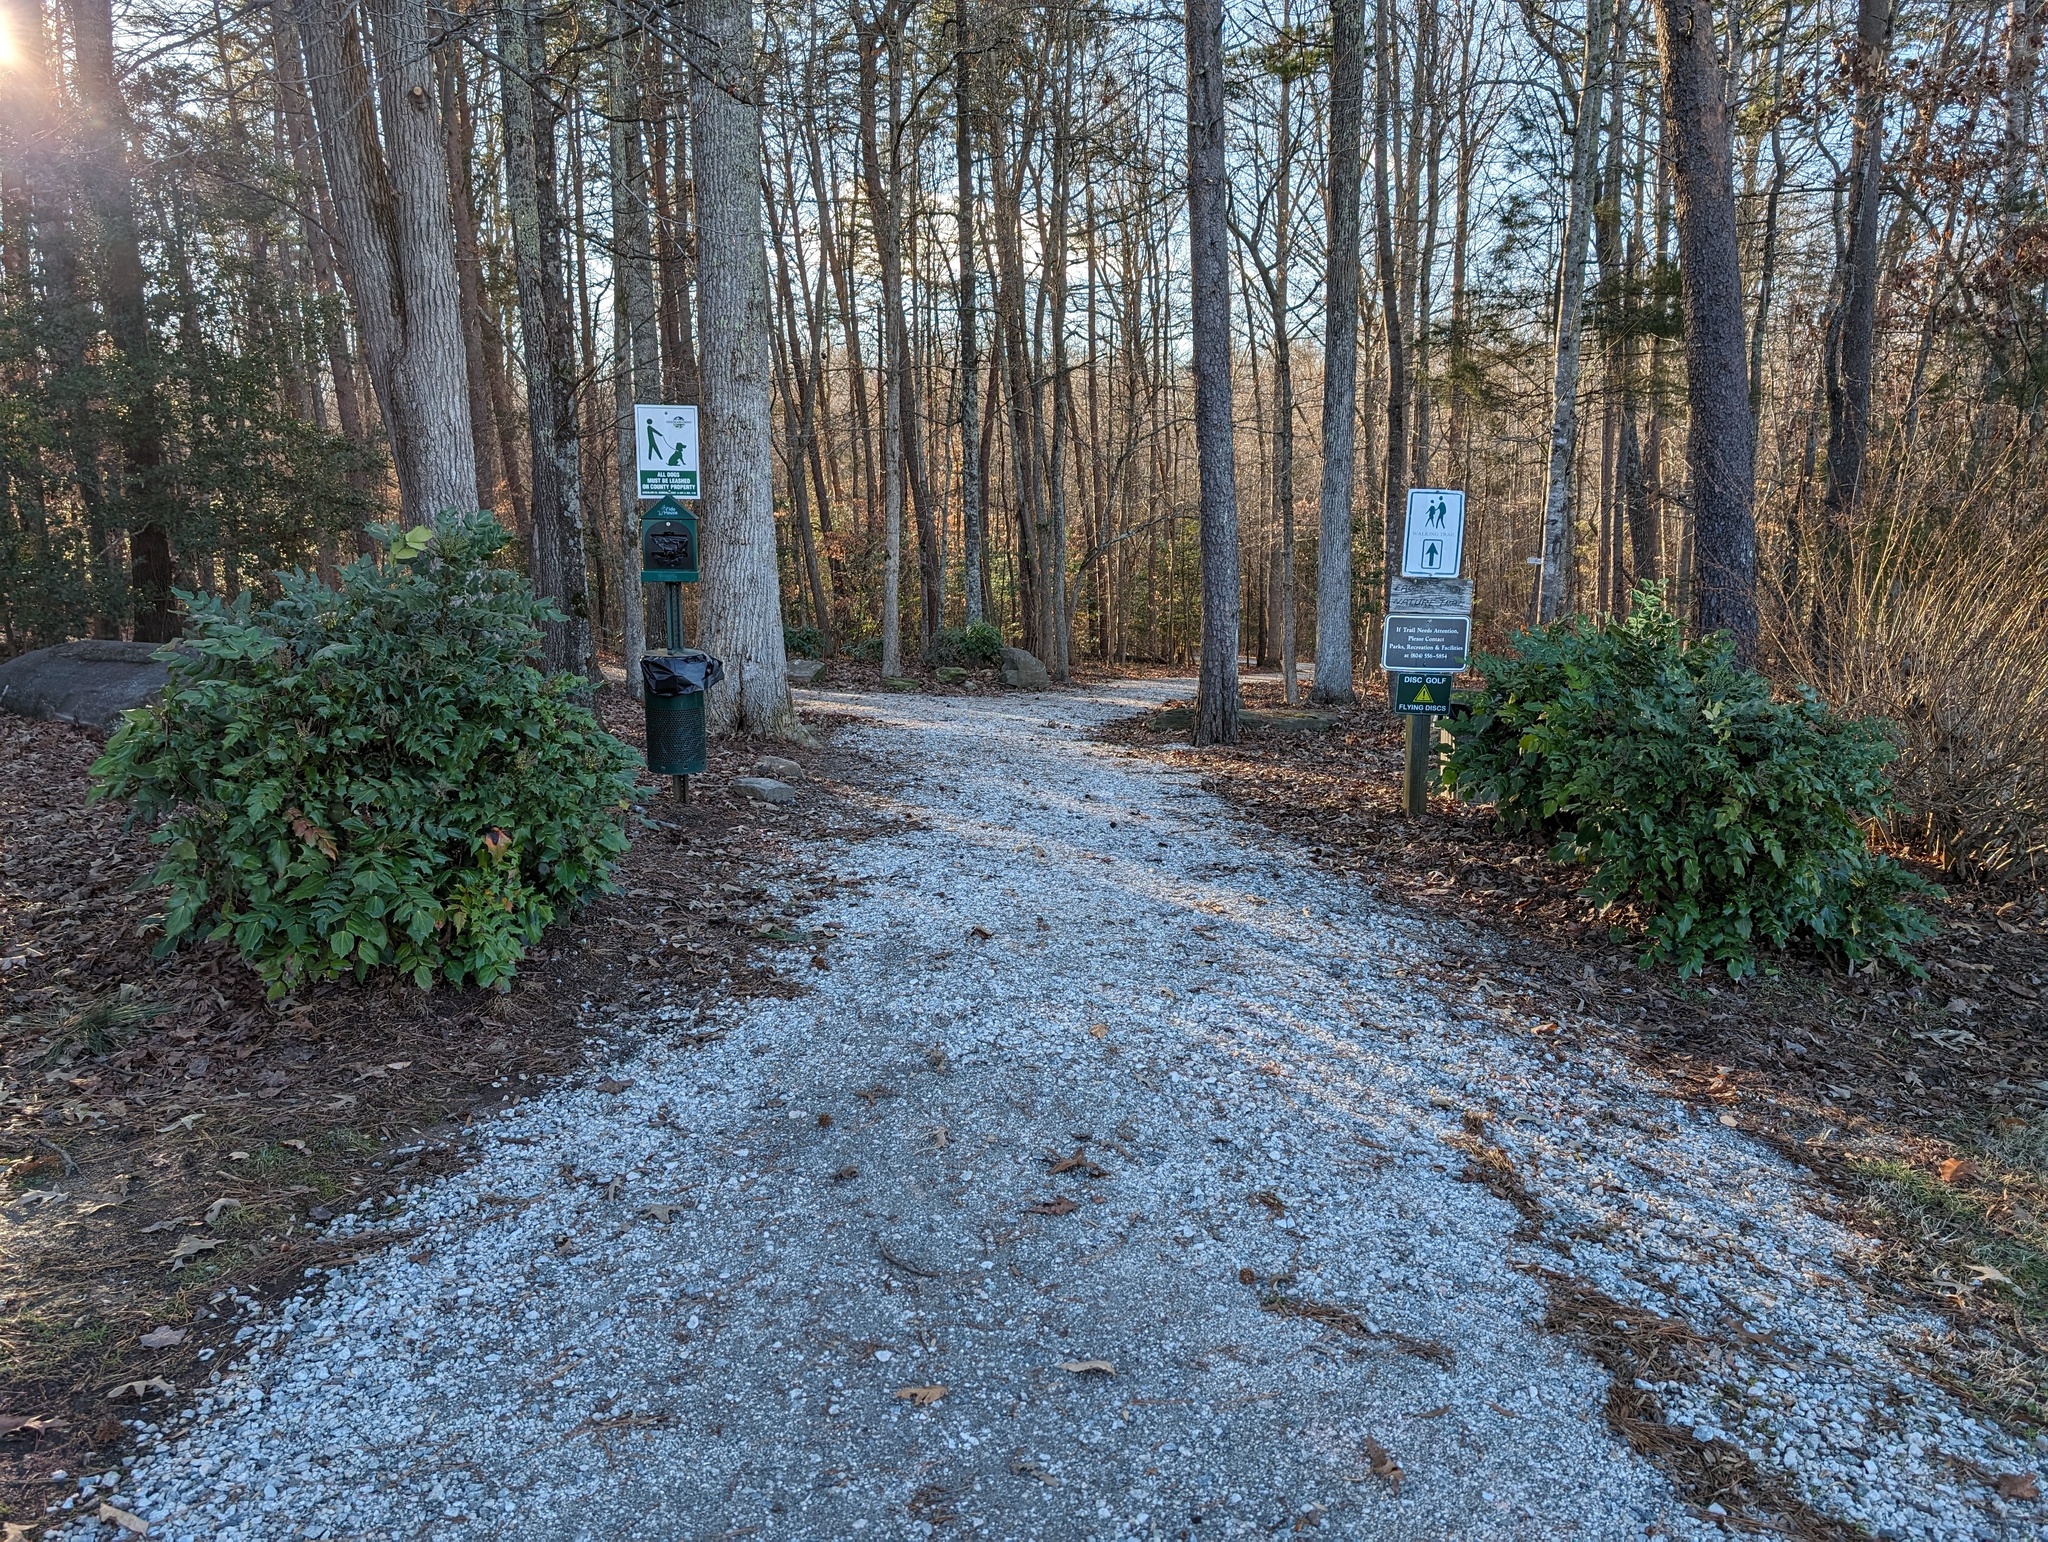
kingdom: Plantae
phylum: Tracheophyta
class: Magnoliopsida
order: Ranunculales
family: Berberidaceae
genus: Mahonia
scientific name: Mahonia bealei
